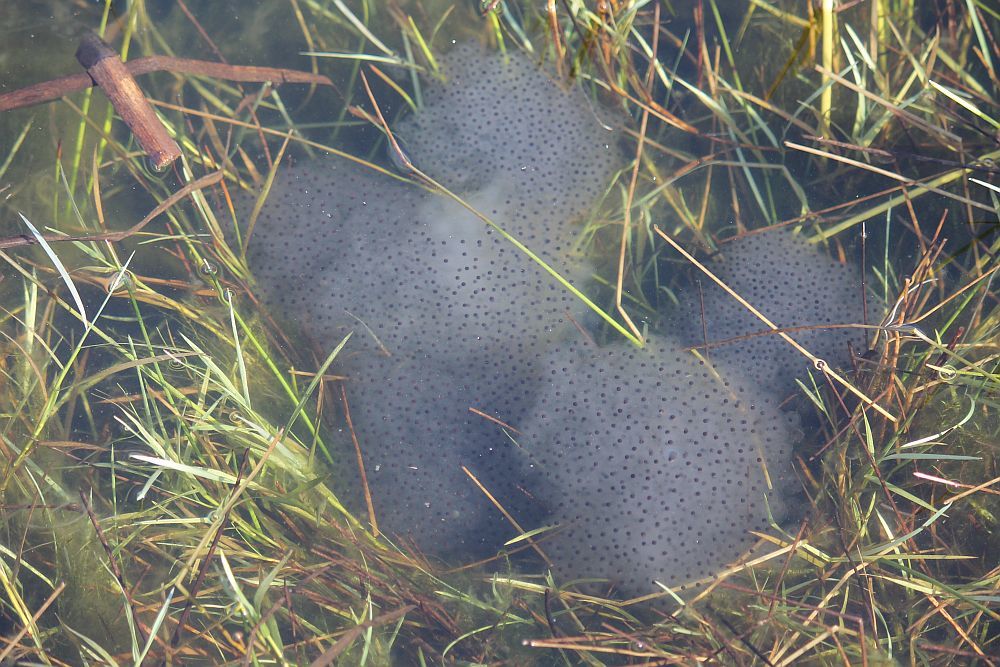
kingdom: Animalia
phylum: Chordata
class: Amphibia
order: Anura
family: Ranidae
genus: Rana
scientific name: Rana temporaria
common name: Common frog
